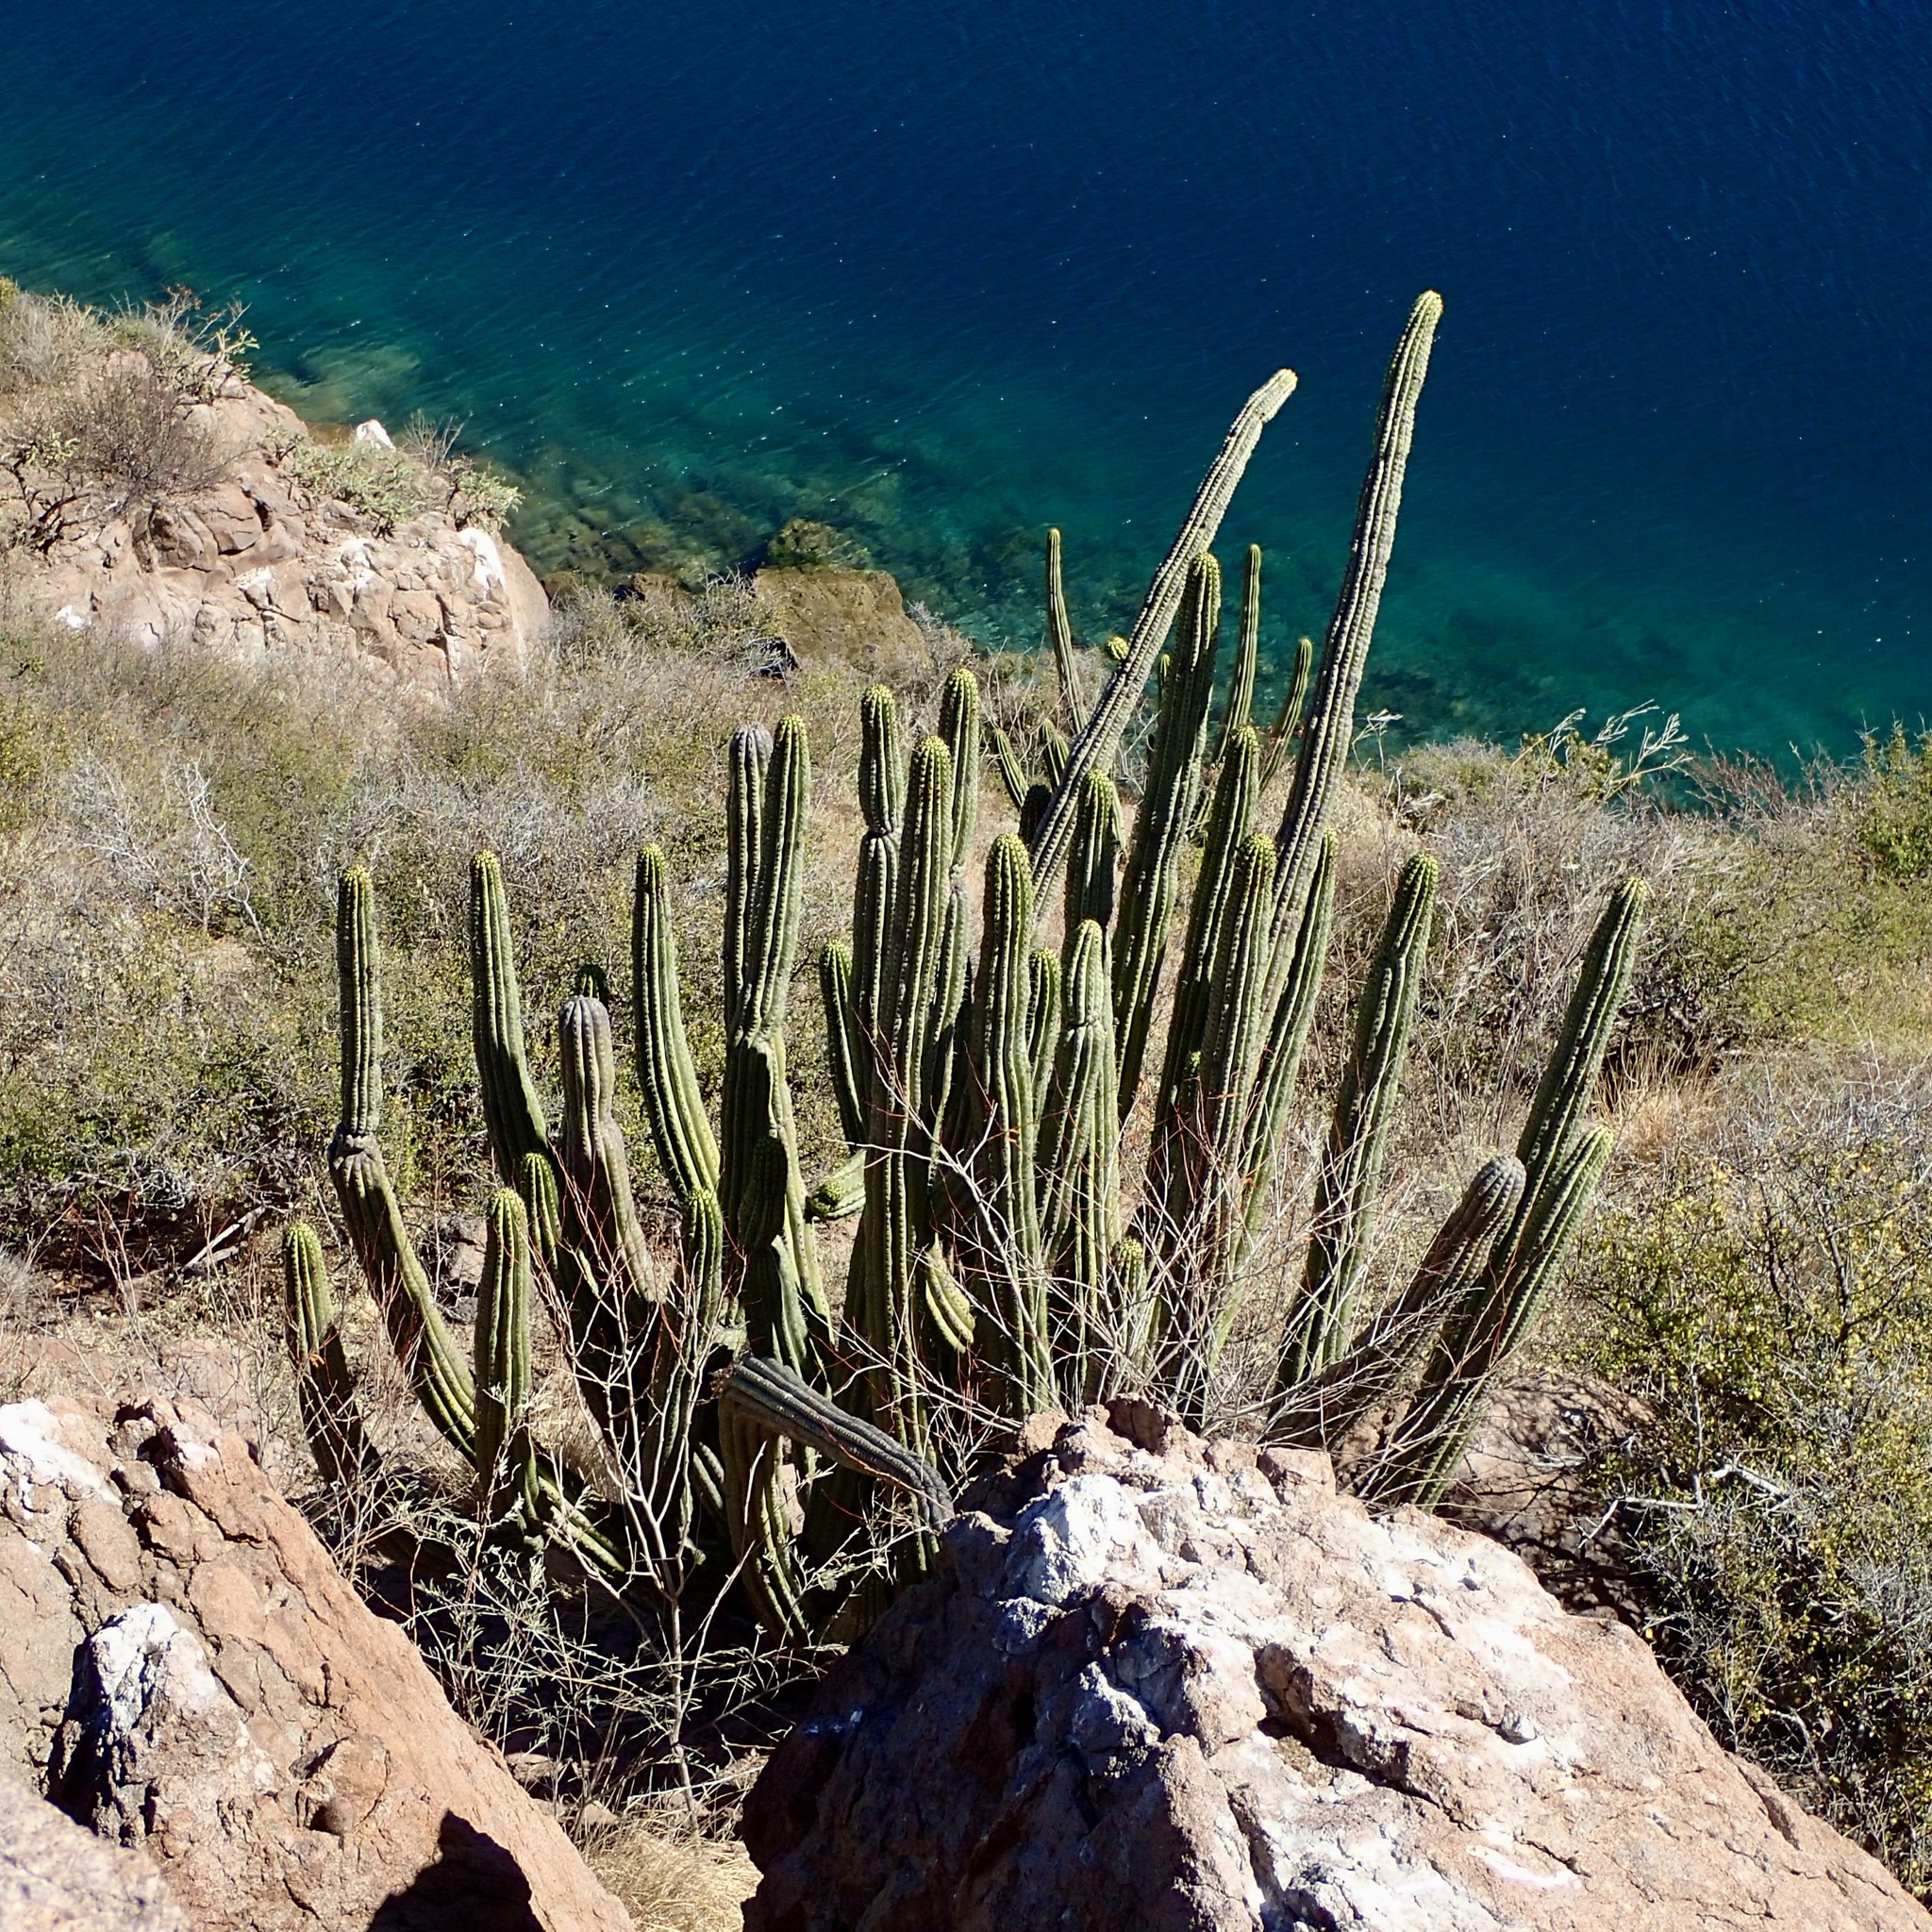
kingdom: Plantae
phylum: Tracheophyta
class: Magnoliopsida
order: Caryophyllales
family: Cactaceae
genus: Stenocereus
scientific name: Stenocereus thurberi
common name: Organ pipe cactus
